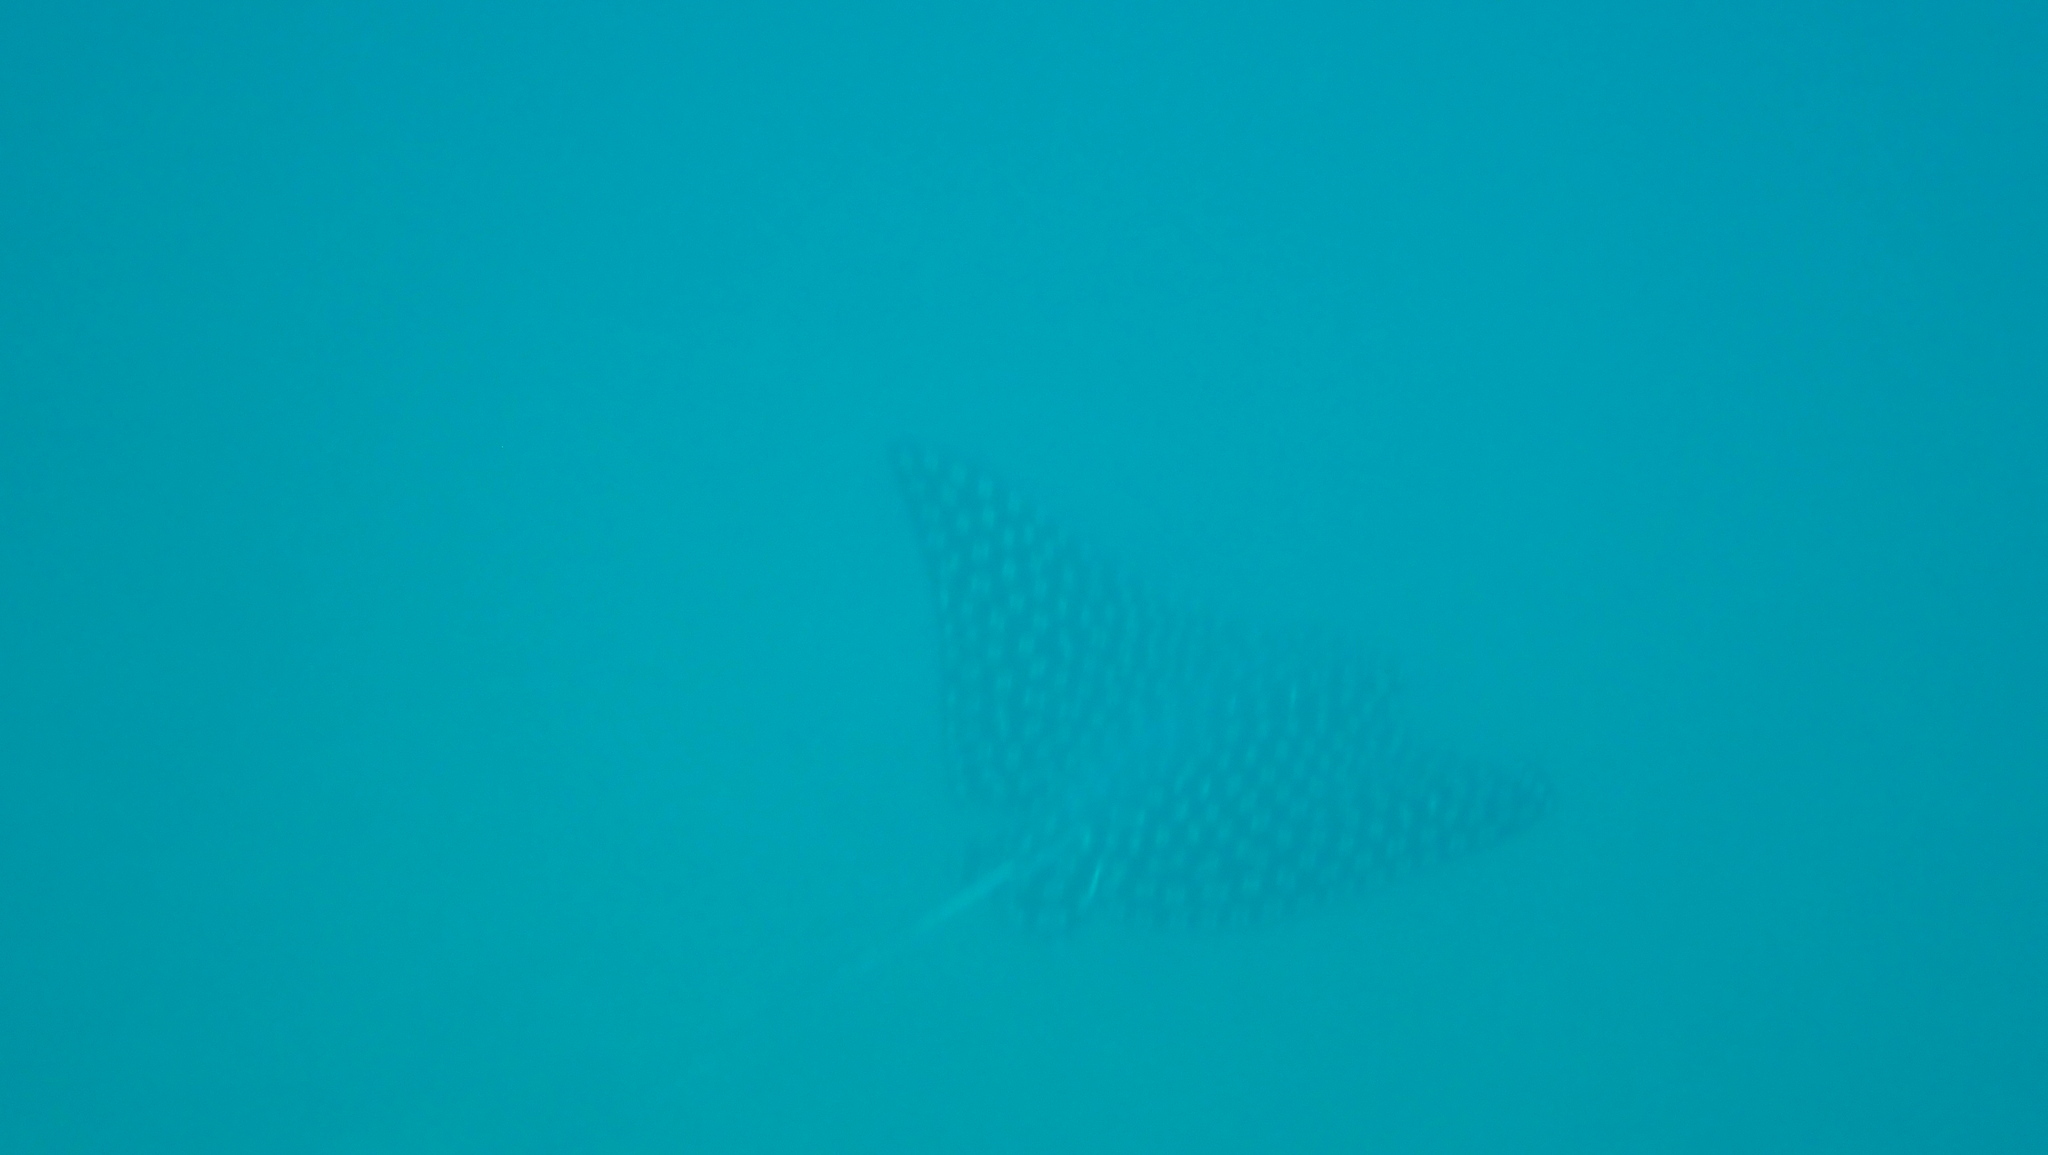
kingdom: Animalia
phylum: Chordata
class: Elasmobranchii
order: Myliobatiformes
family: Myliobatidae
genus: Aetobatus
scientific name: Aetobatus laticeps
